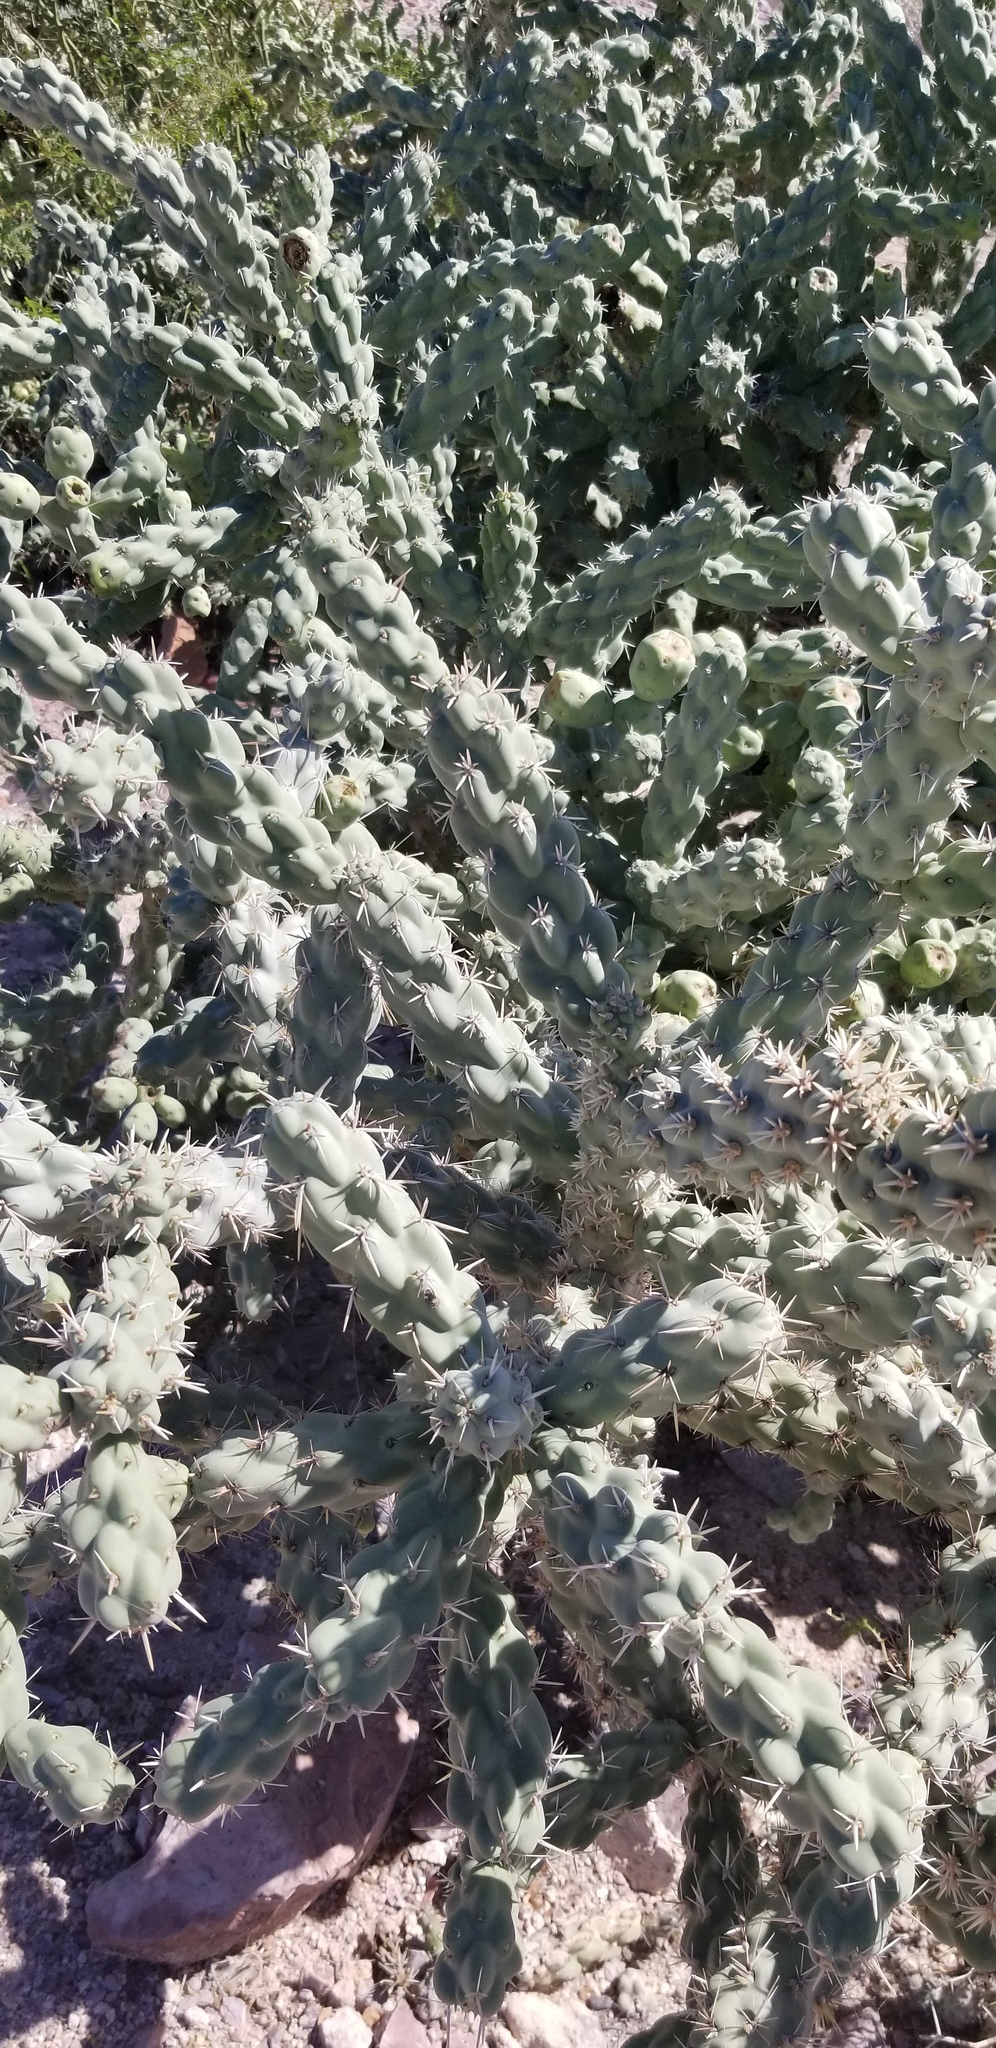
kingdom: Plantae
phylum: Tracheophyta
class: Magnoliopsida
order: Caryophyllales
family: Cactaceae
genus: Cylindropuntia
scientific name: Cylindropuntia cholla
